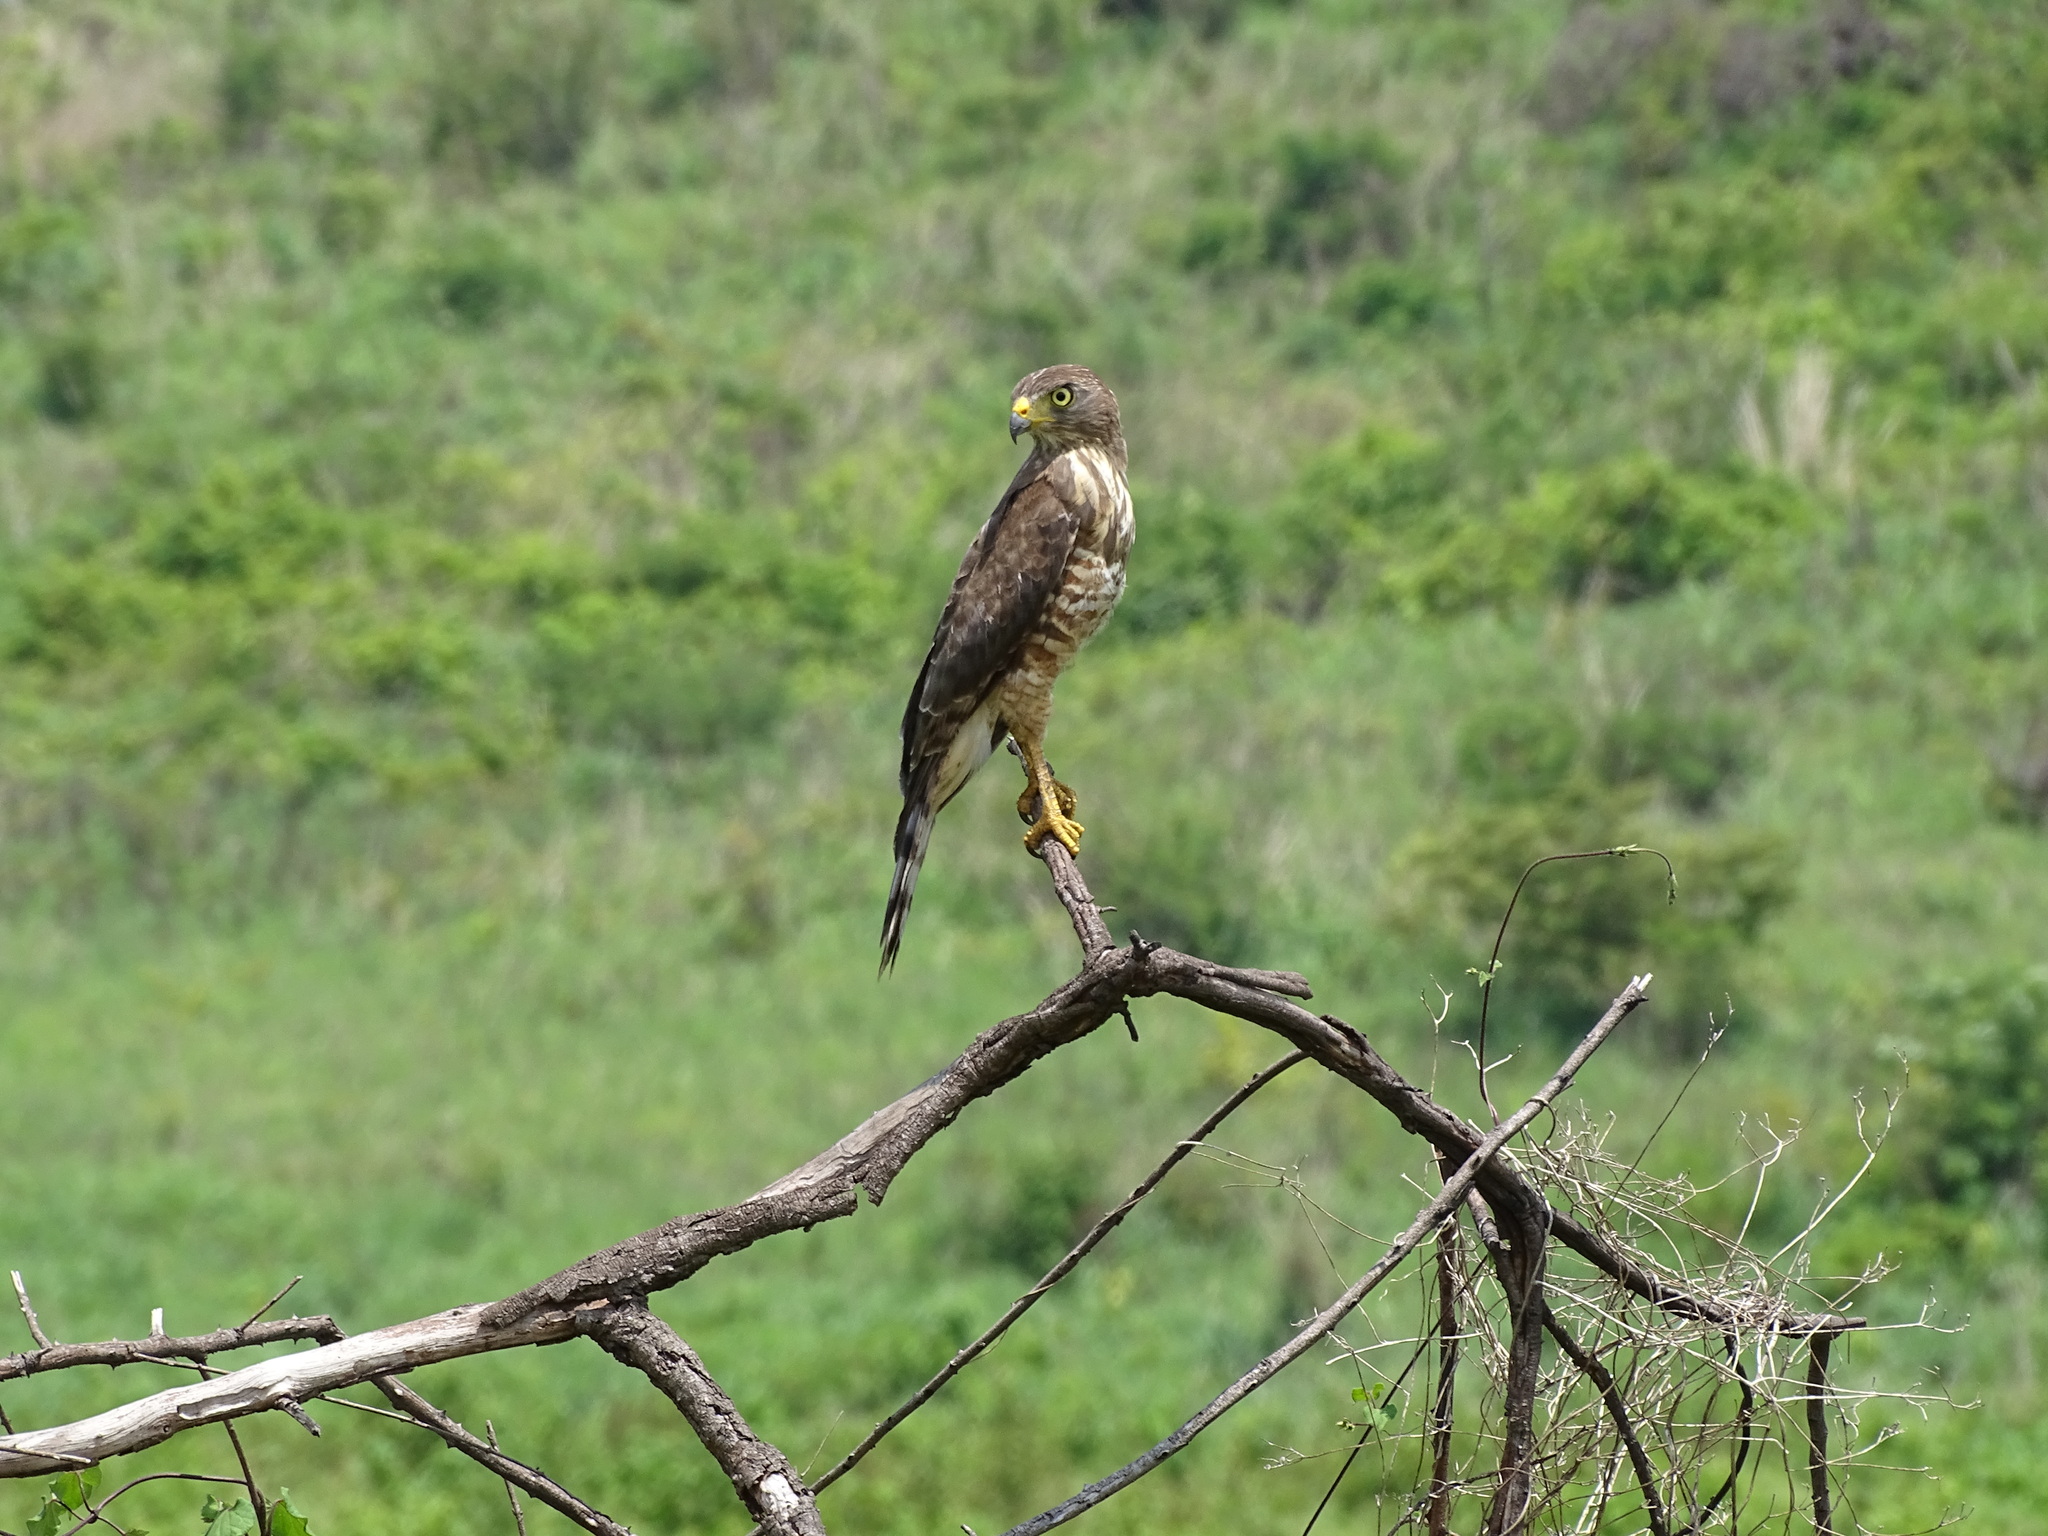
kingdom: Animalia
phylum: Chordata
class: Aves
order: Accipitriformes
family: Accipitridae
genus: Rupornis
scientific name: Rupornis magnirostris
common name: Roadside hawk
